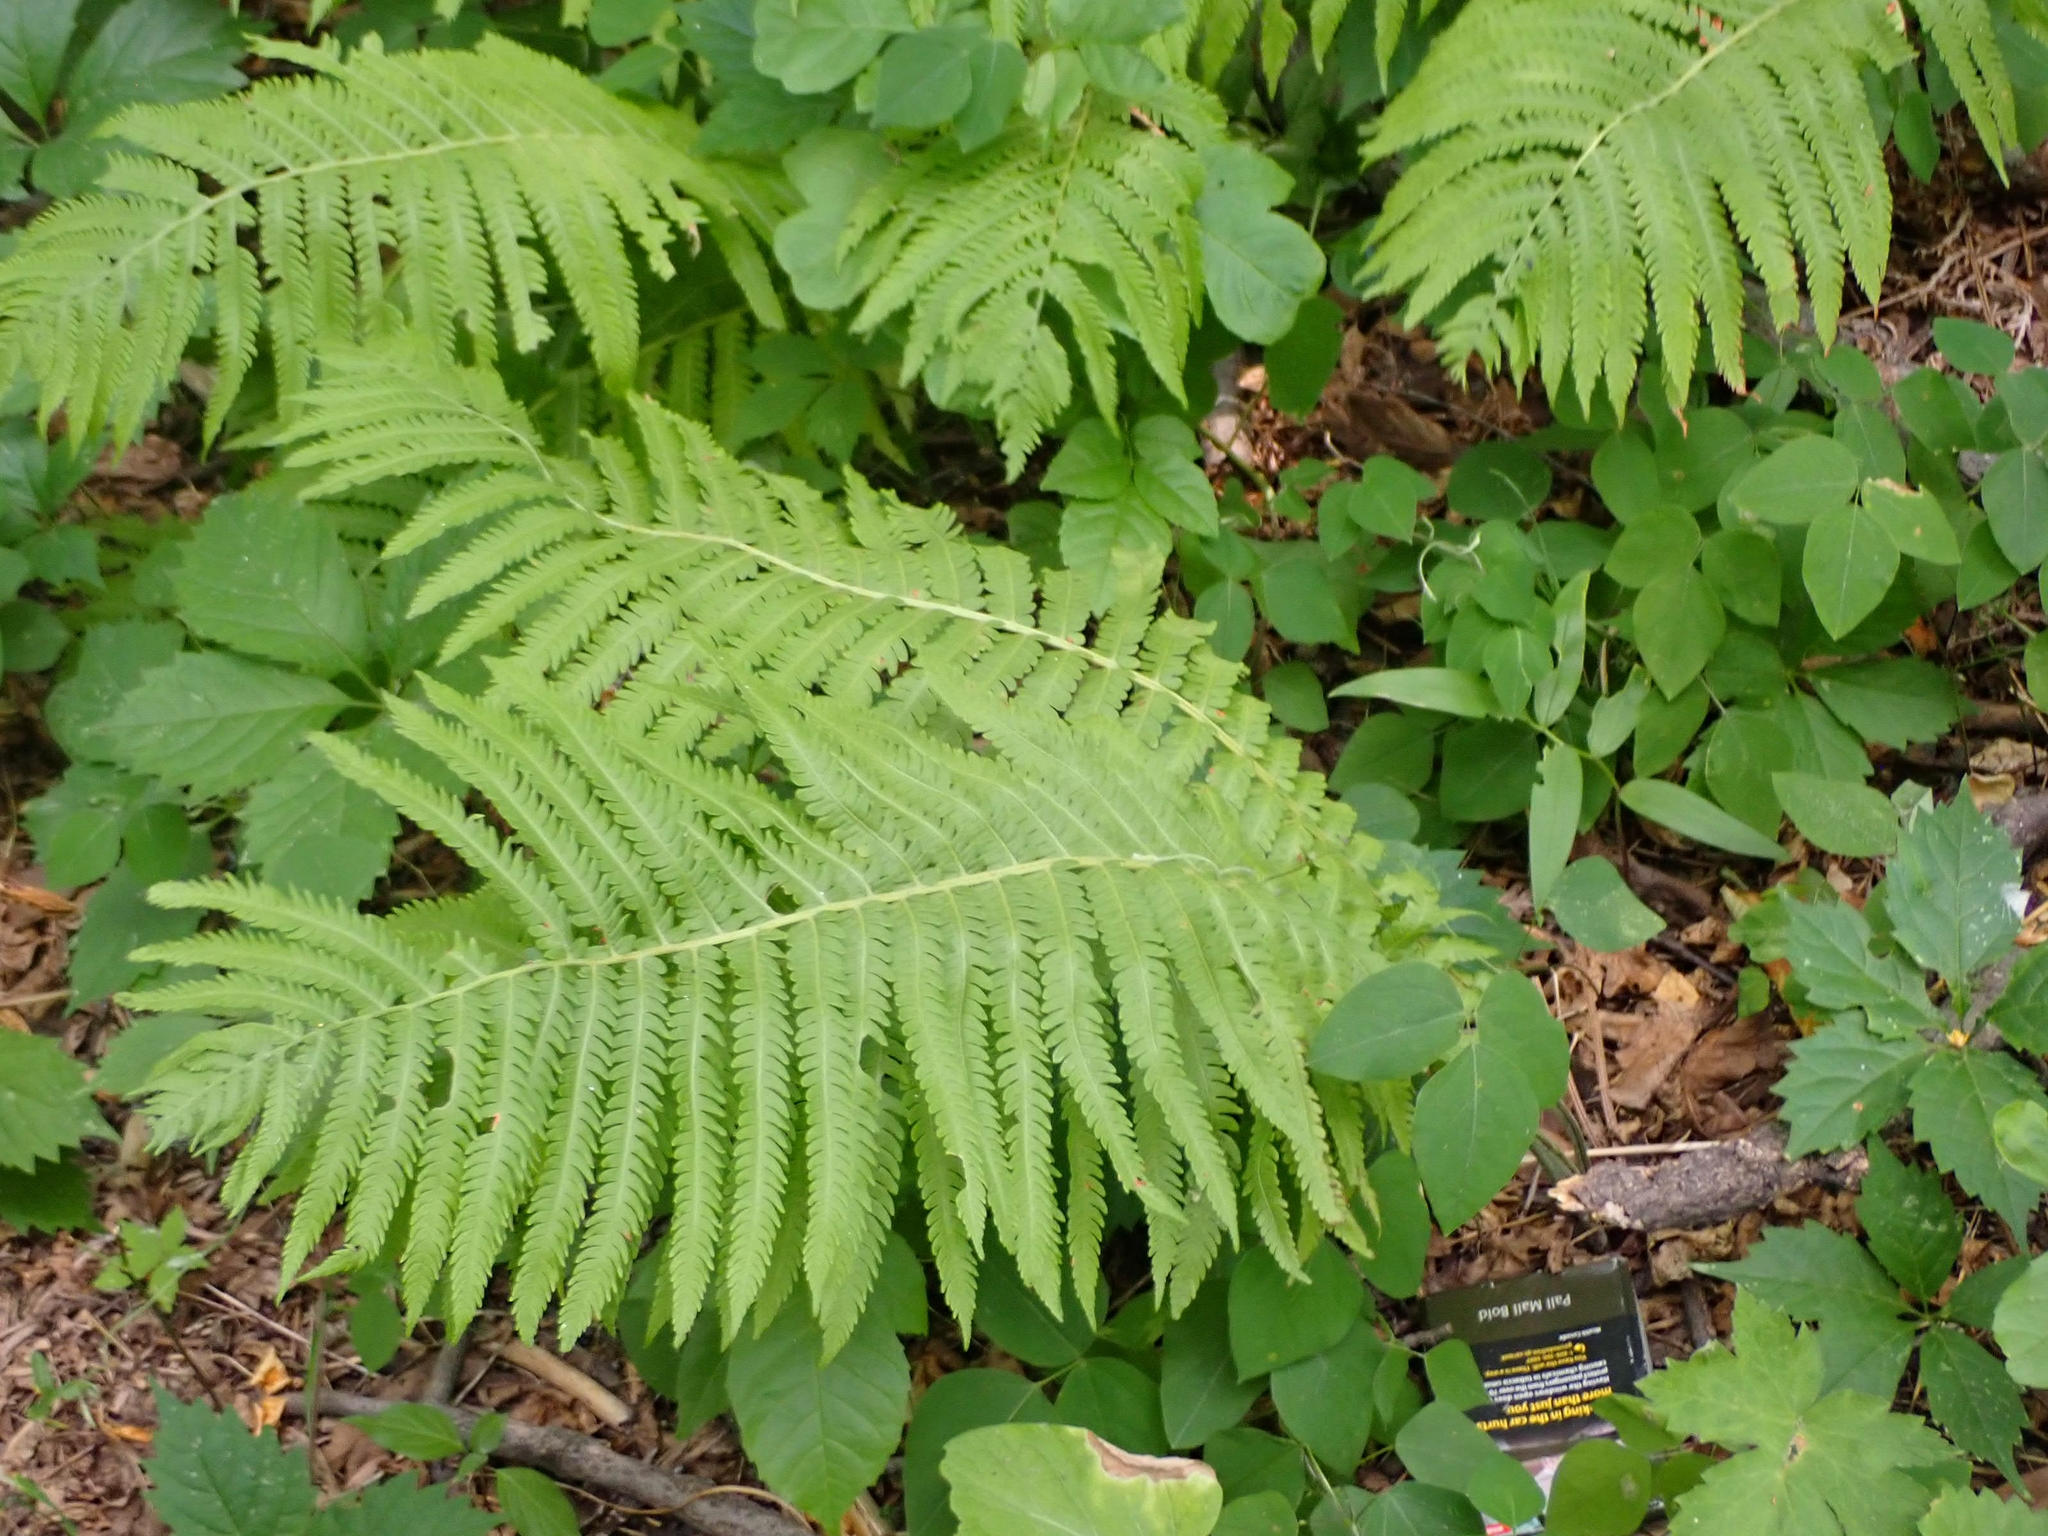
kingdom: Plantae
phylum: Tracheophyta
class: Polypodiopsida
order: Polypodiales
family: Onocleaceae
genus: Matteuccia
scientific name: Matteuccia struthiopteris
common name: Ostrich fern
